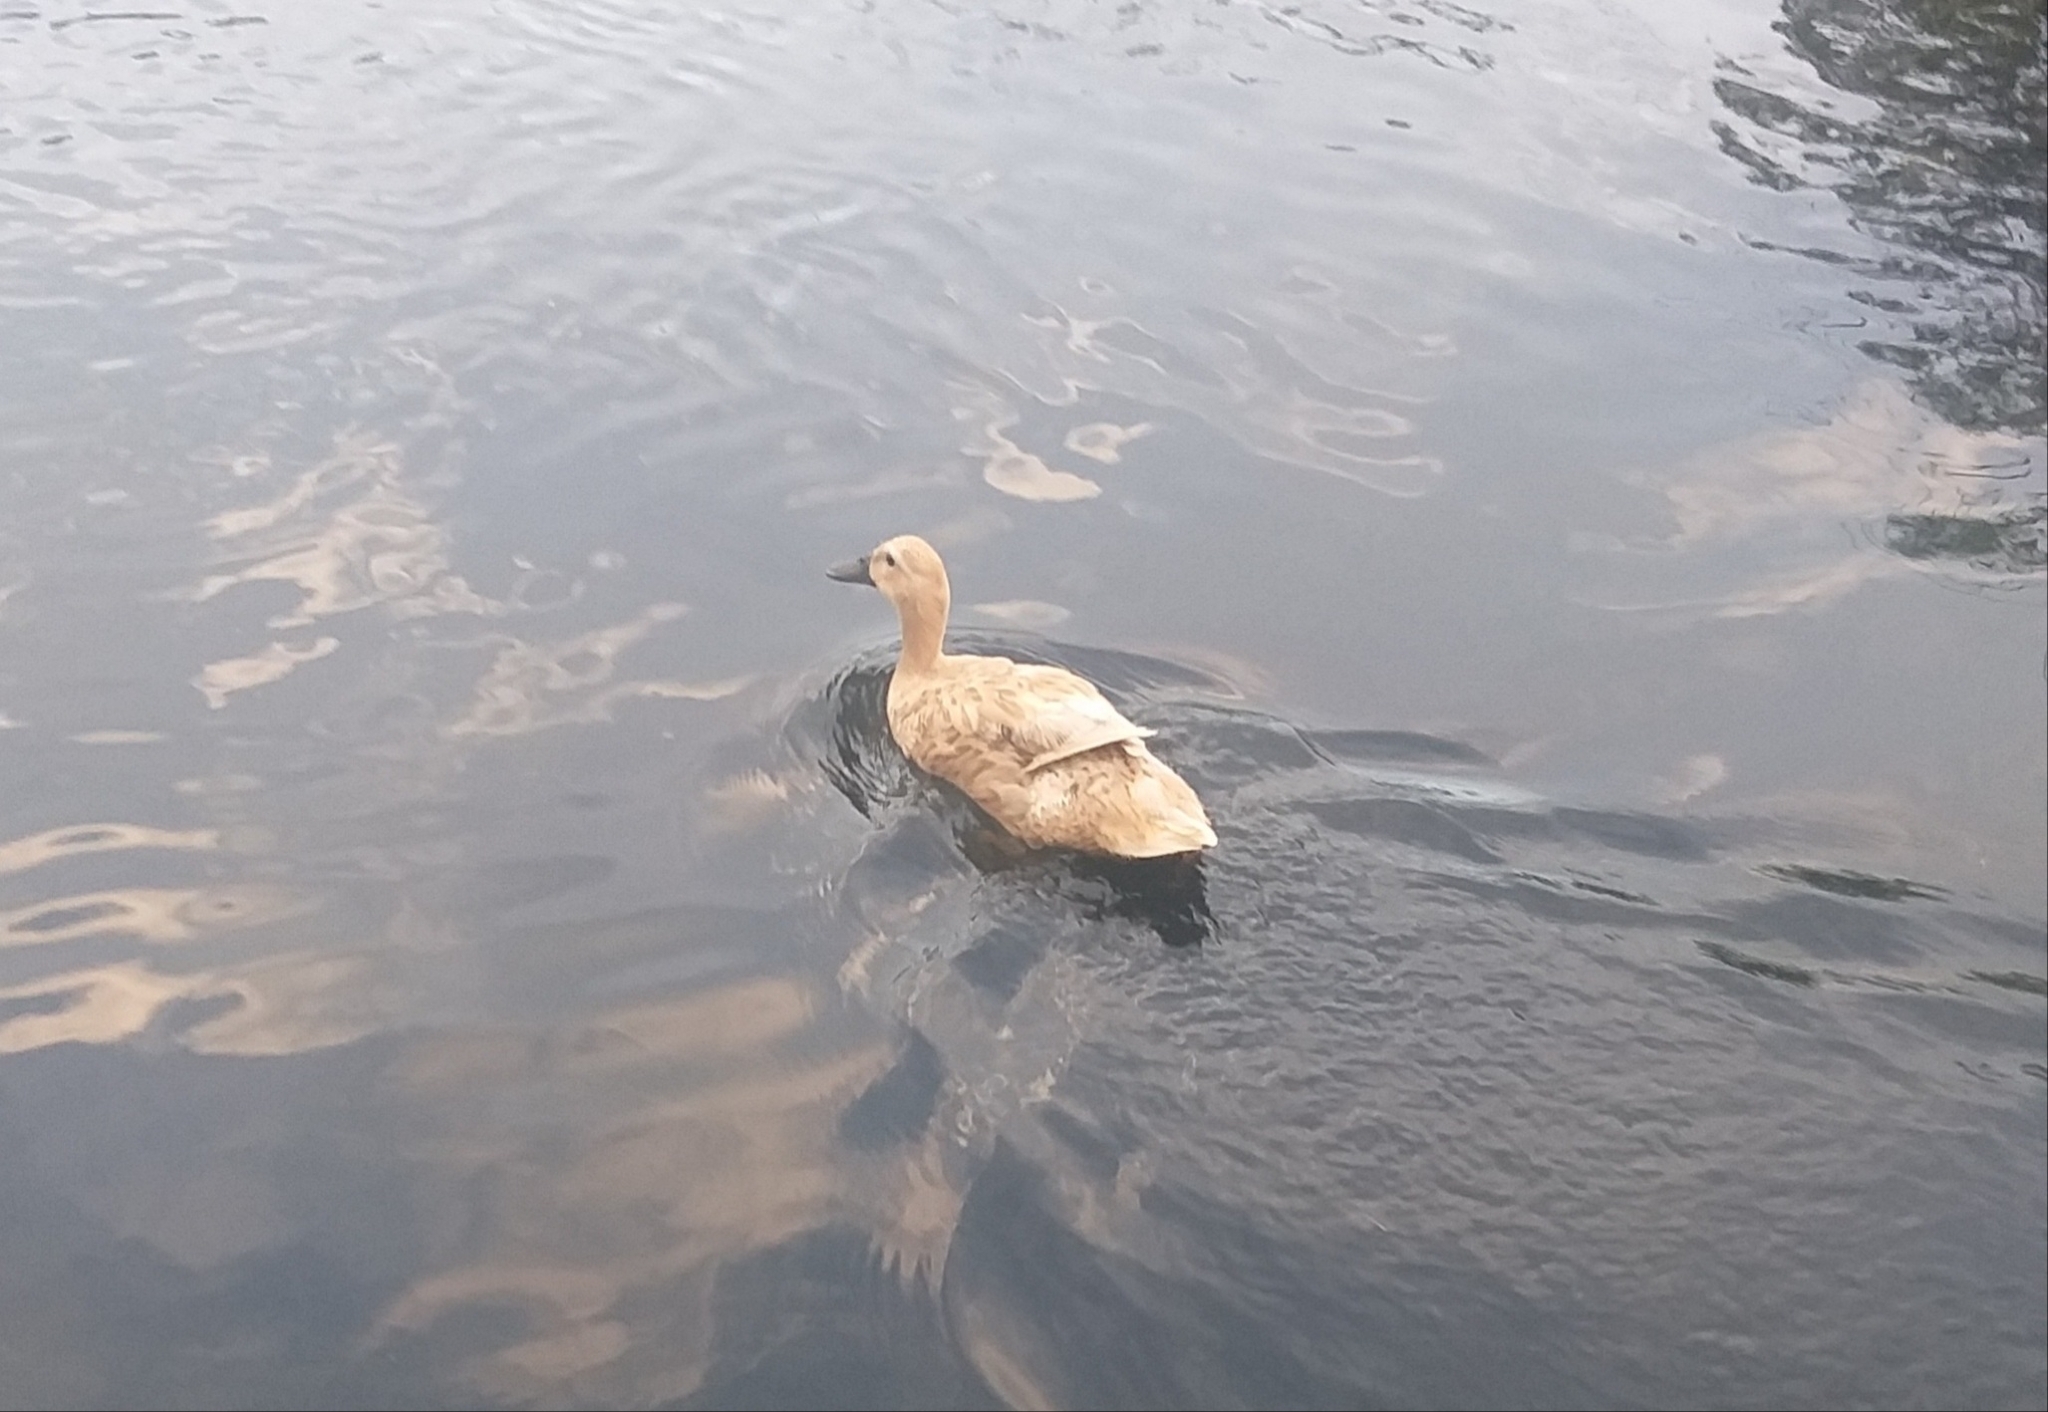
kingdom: Animalia
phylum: Chordata
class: Aves
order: Anseriformes
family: Anatidae
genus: Anas
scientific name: Anas platyrhynchos
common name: Mallard
